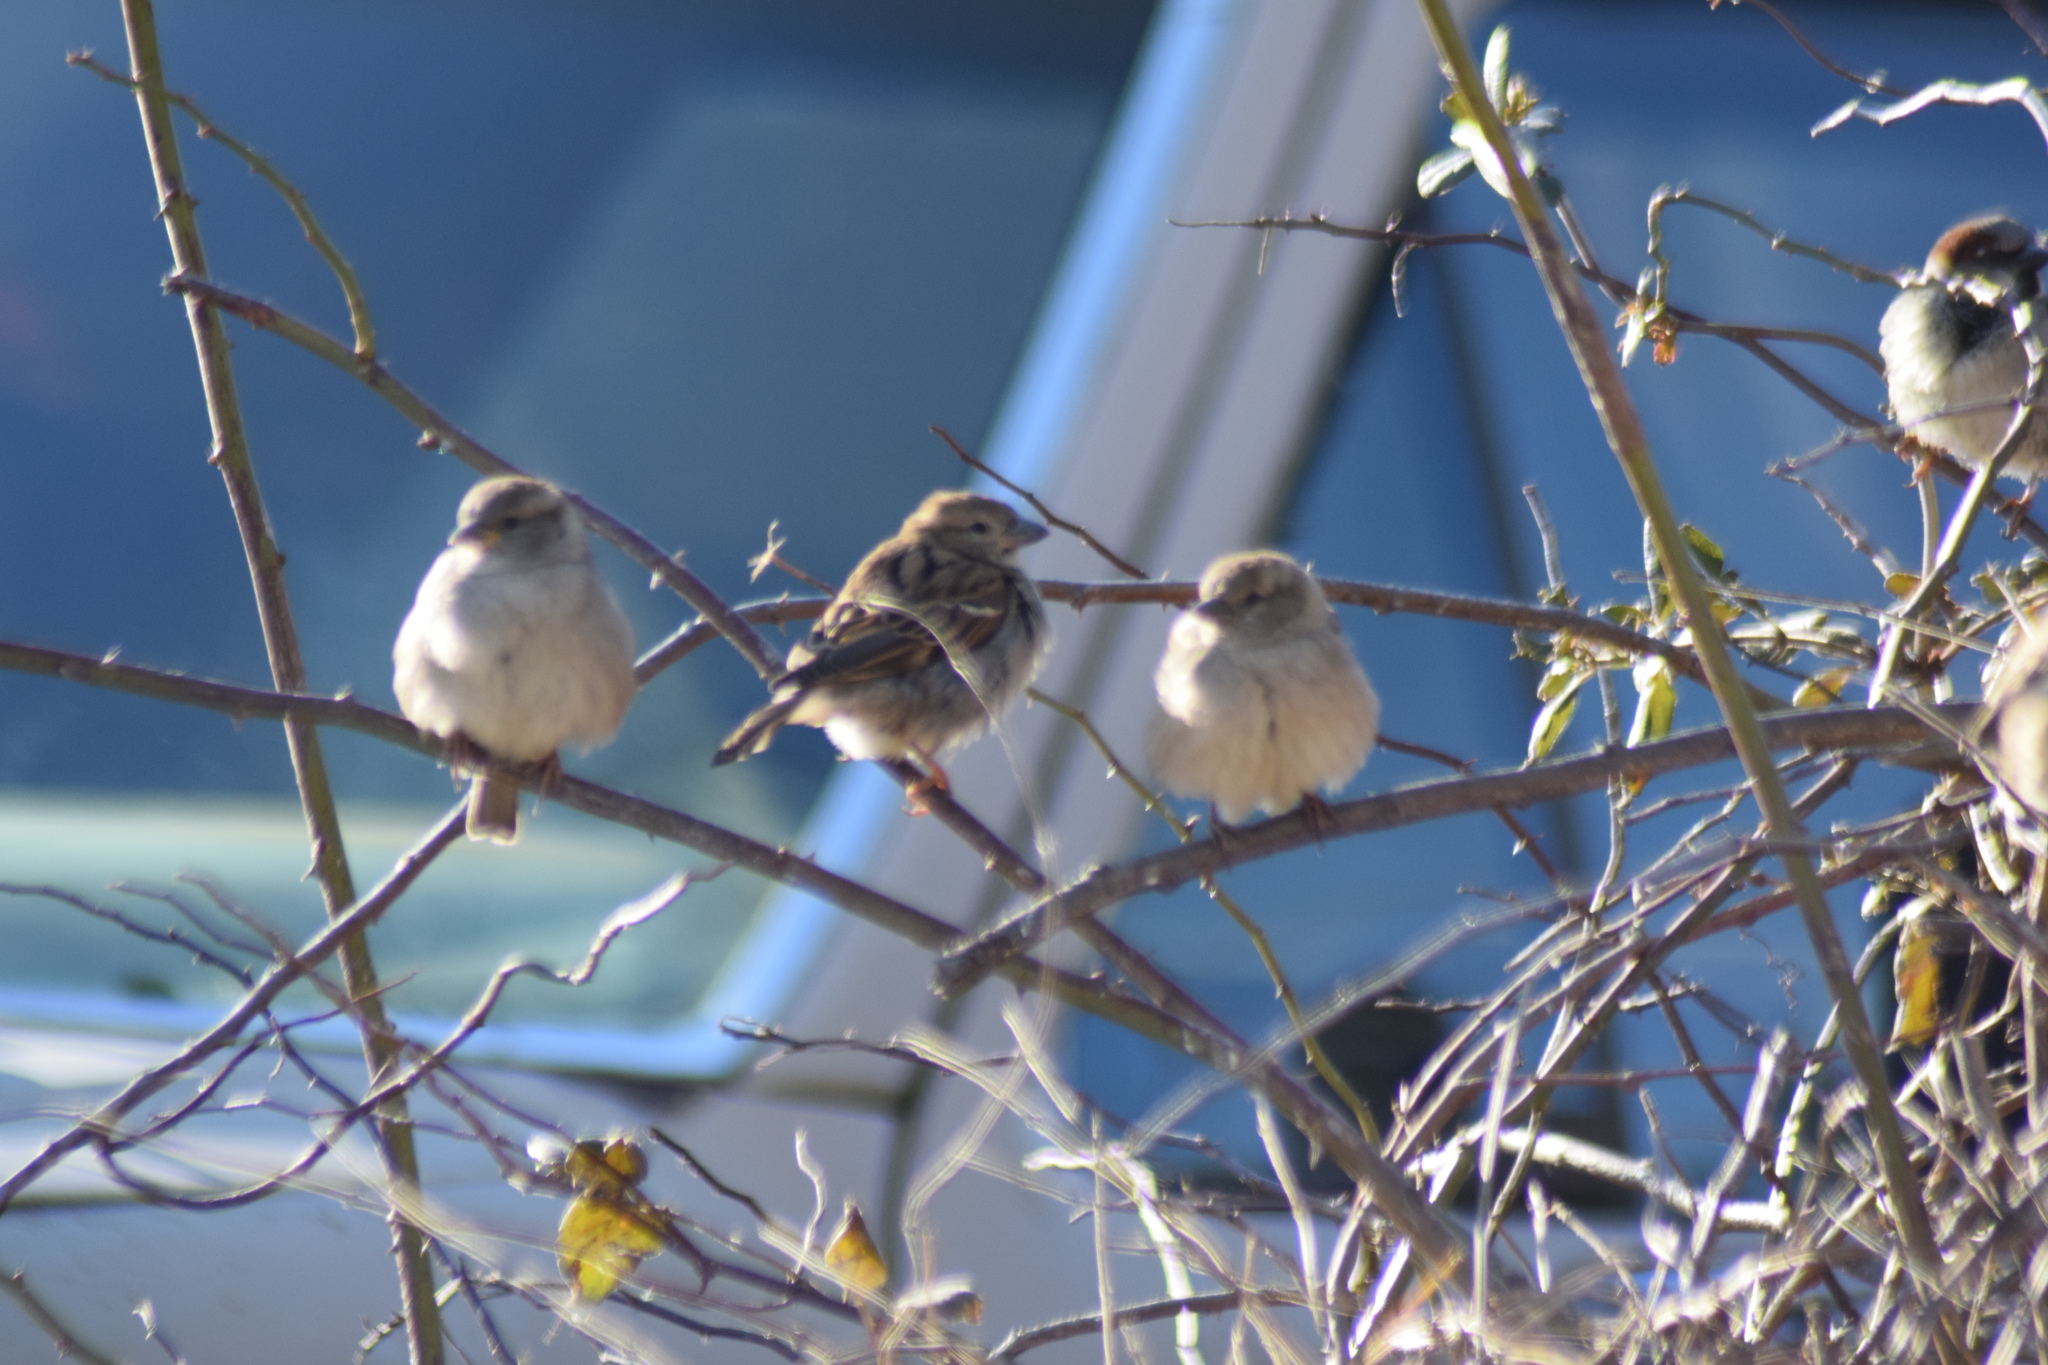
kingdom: Animalia
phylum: Chordata
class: Aves
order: Passeriformes
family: Passeridae
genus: Passer
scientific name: Passer domesticus
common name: House sparrow
